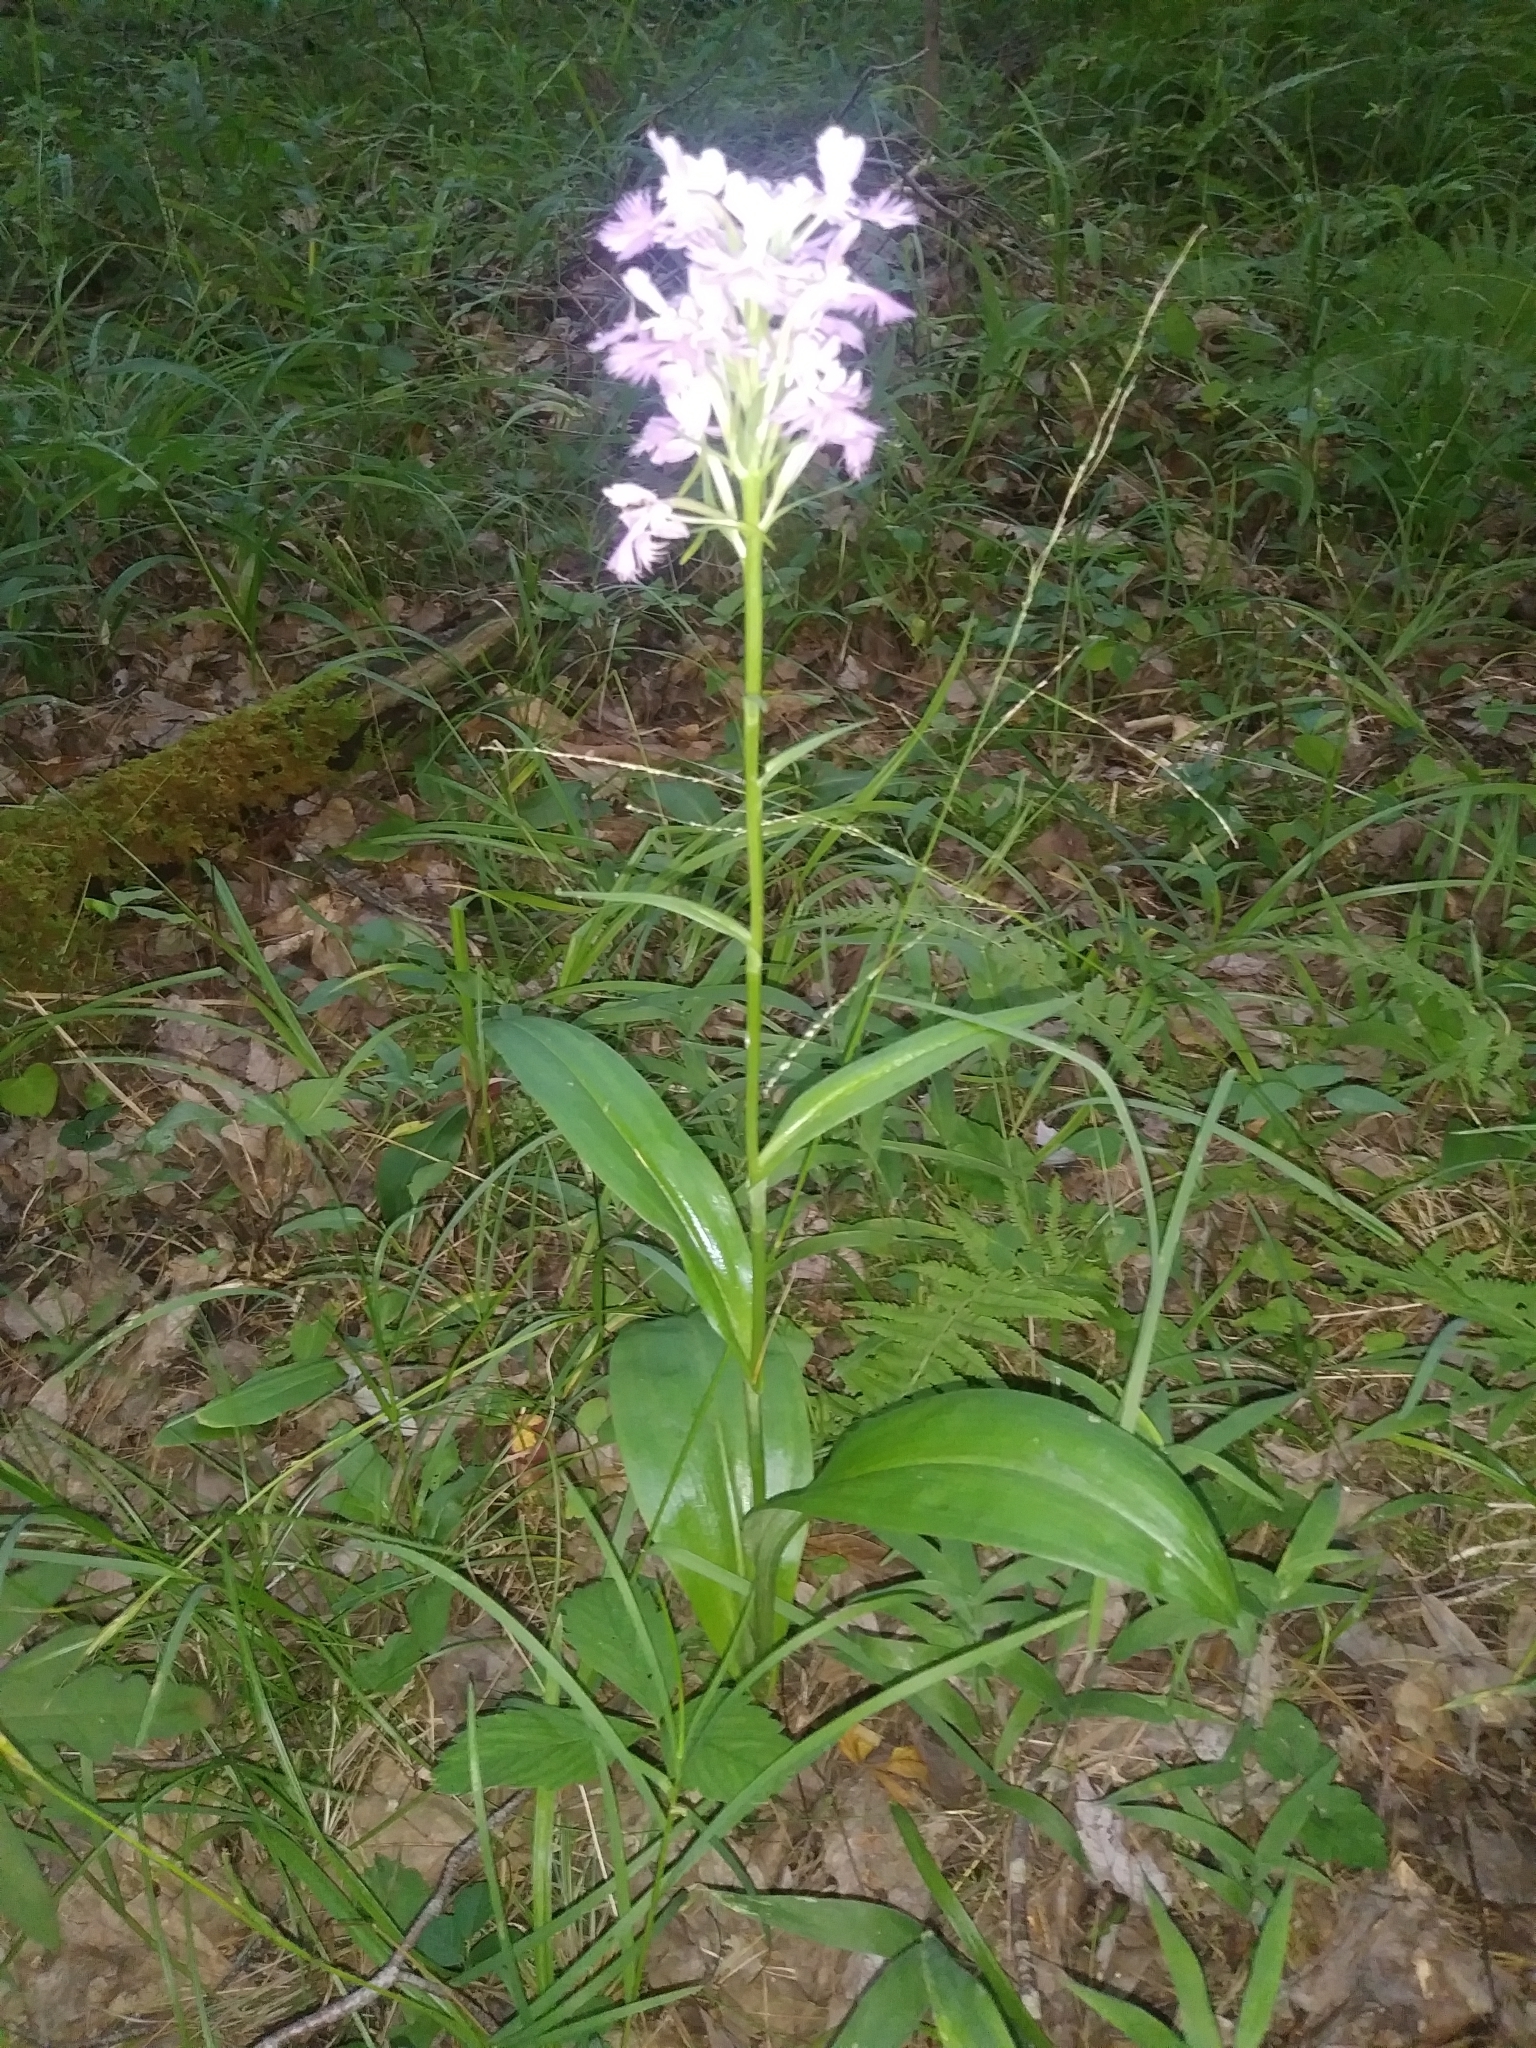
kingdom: Plantae
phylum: Tracheophyta
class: Liliopsida
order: Asparagales
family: Orchidaceae
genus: Platanthera
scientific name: Platanthera grandiflora
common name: Greater purple fringed orchid
